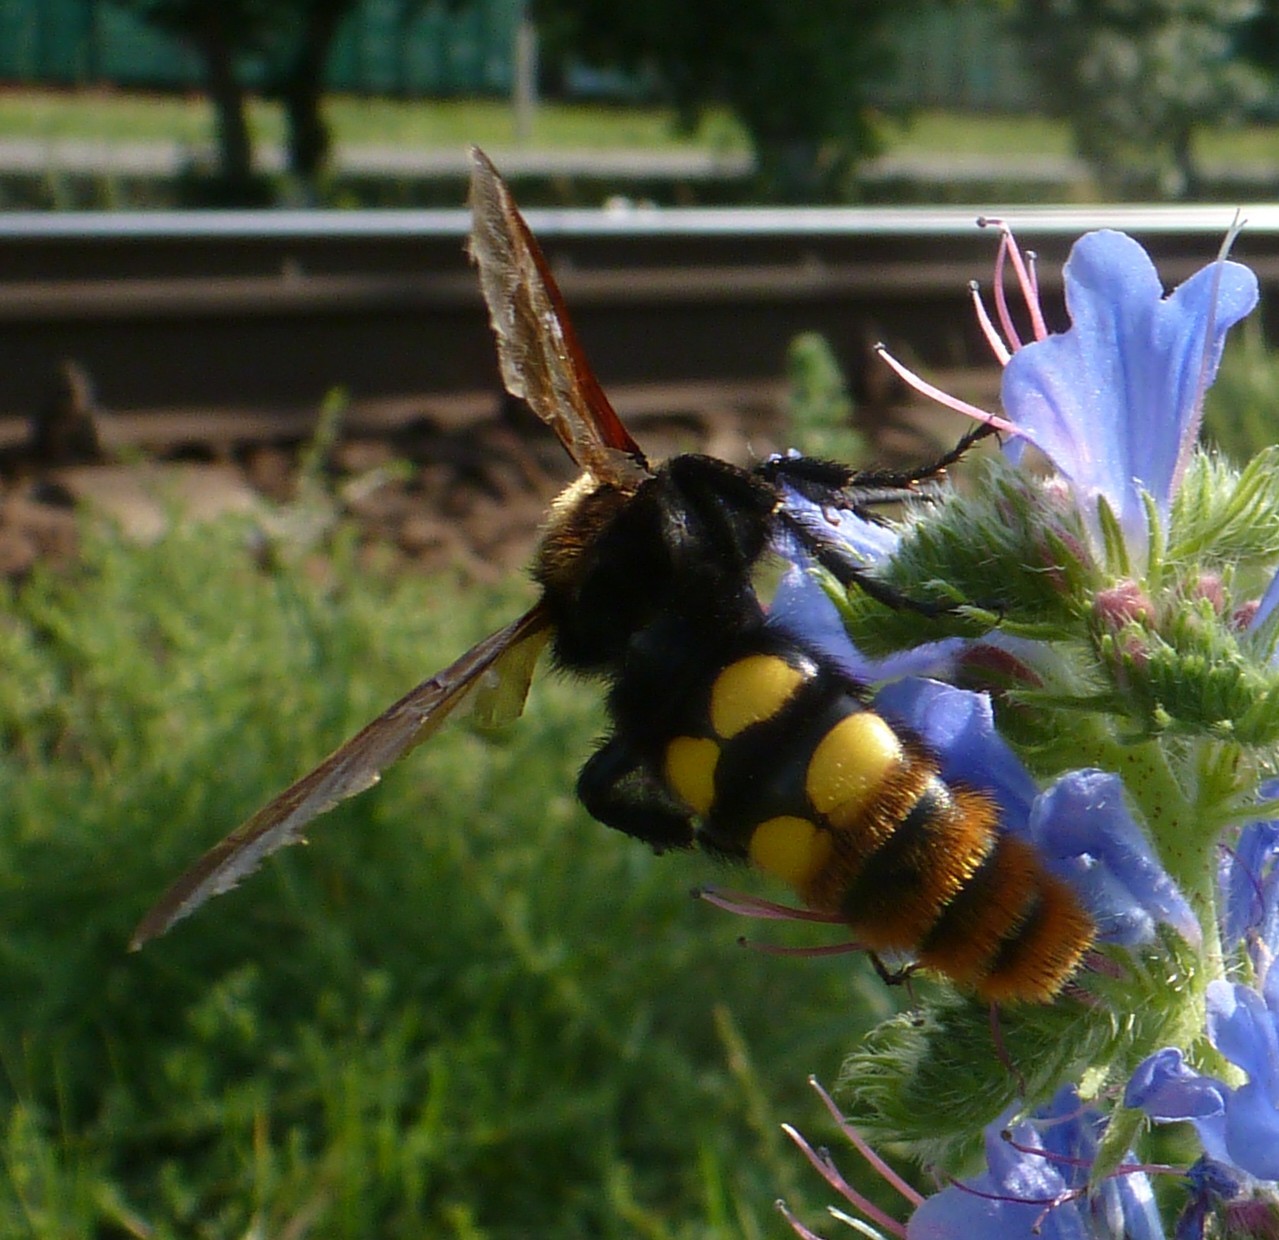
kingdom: Animalia
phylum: Arthropoda
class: Insecta
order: Hymenoptera
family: Scoliidae
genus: Megascolia
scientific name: Megascolia maculata
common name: Mammoth wasp
